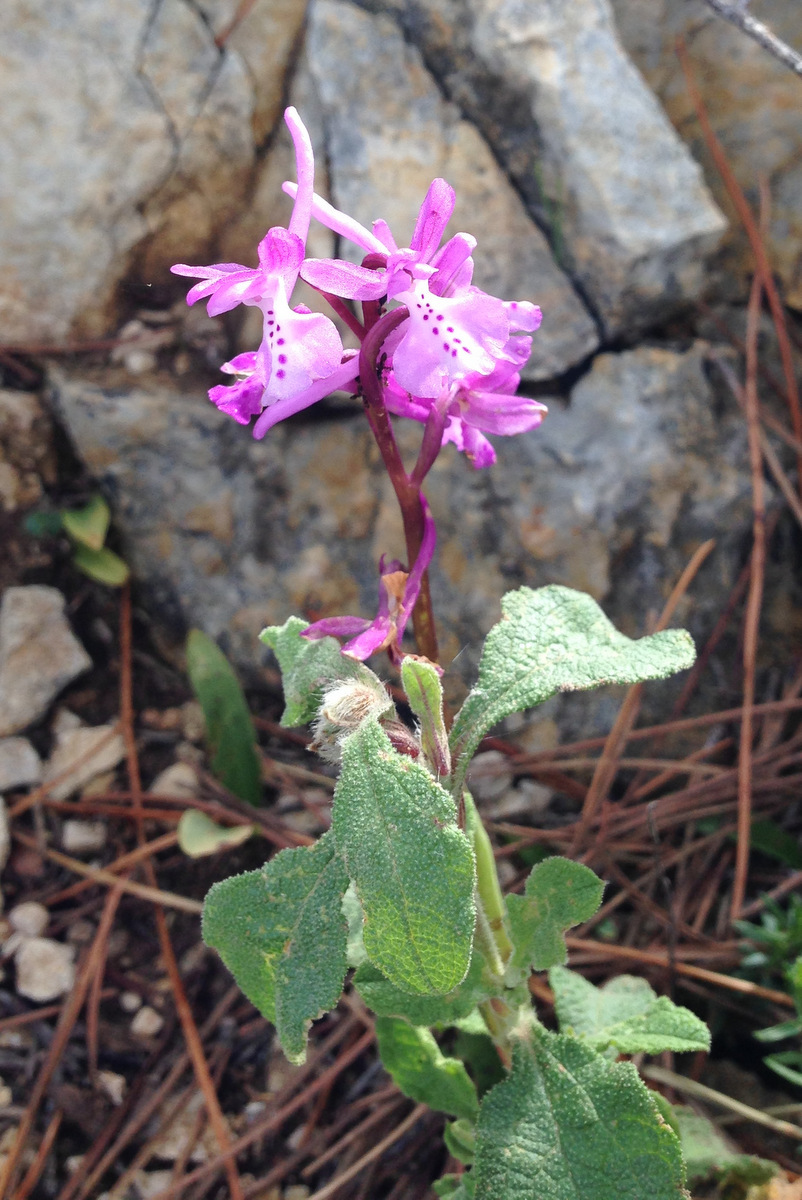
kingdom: Plantae
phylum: Tracheophyta
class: Liliopsida
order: Asparagales
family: Orchidaceae
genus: Orchis
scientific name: Orchis anatolica
